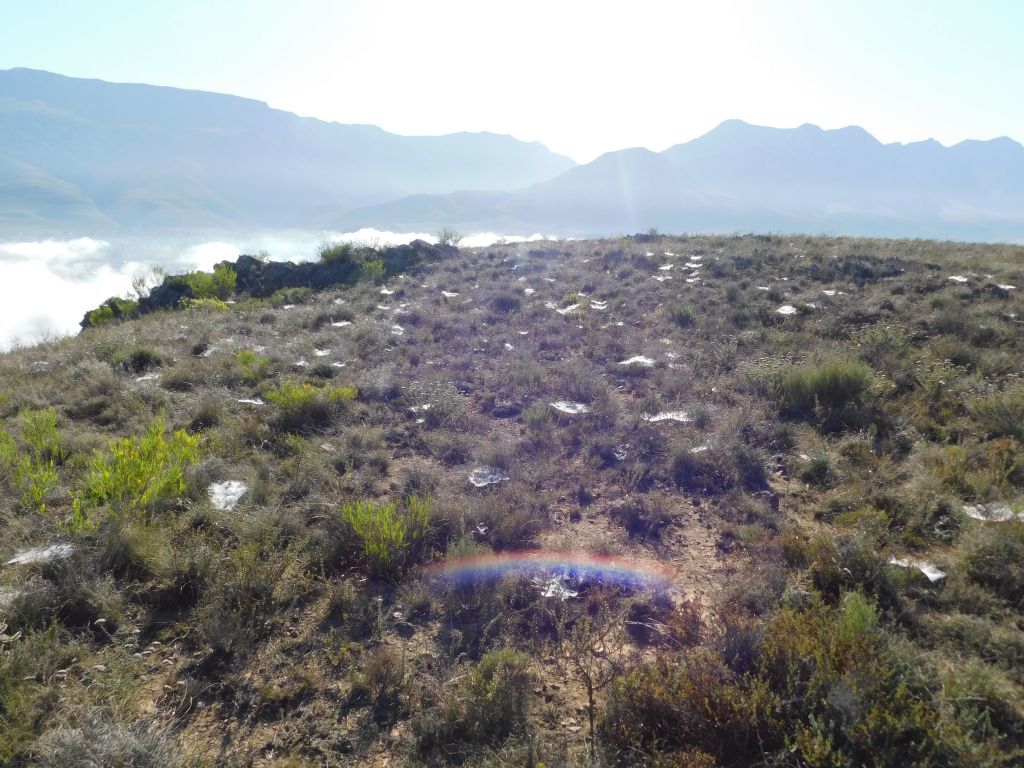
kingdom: Animalia
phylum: Arthropoda
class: Arachnida
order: Araneae
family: Pisauridae
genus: Euprosthenopsis
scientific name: Euprosthenopsis pulchella
